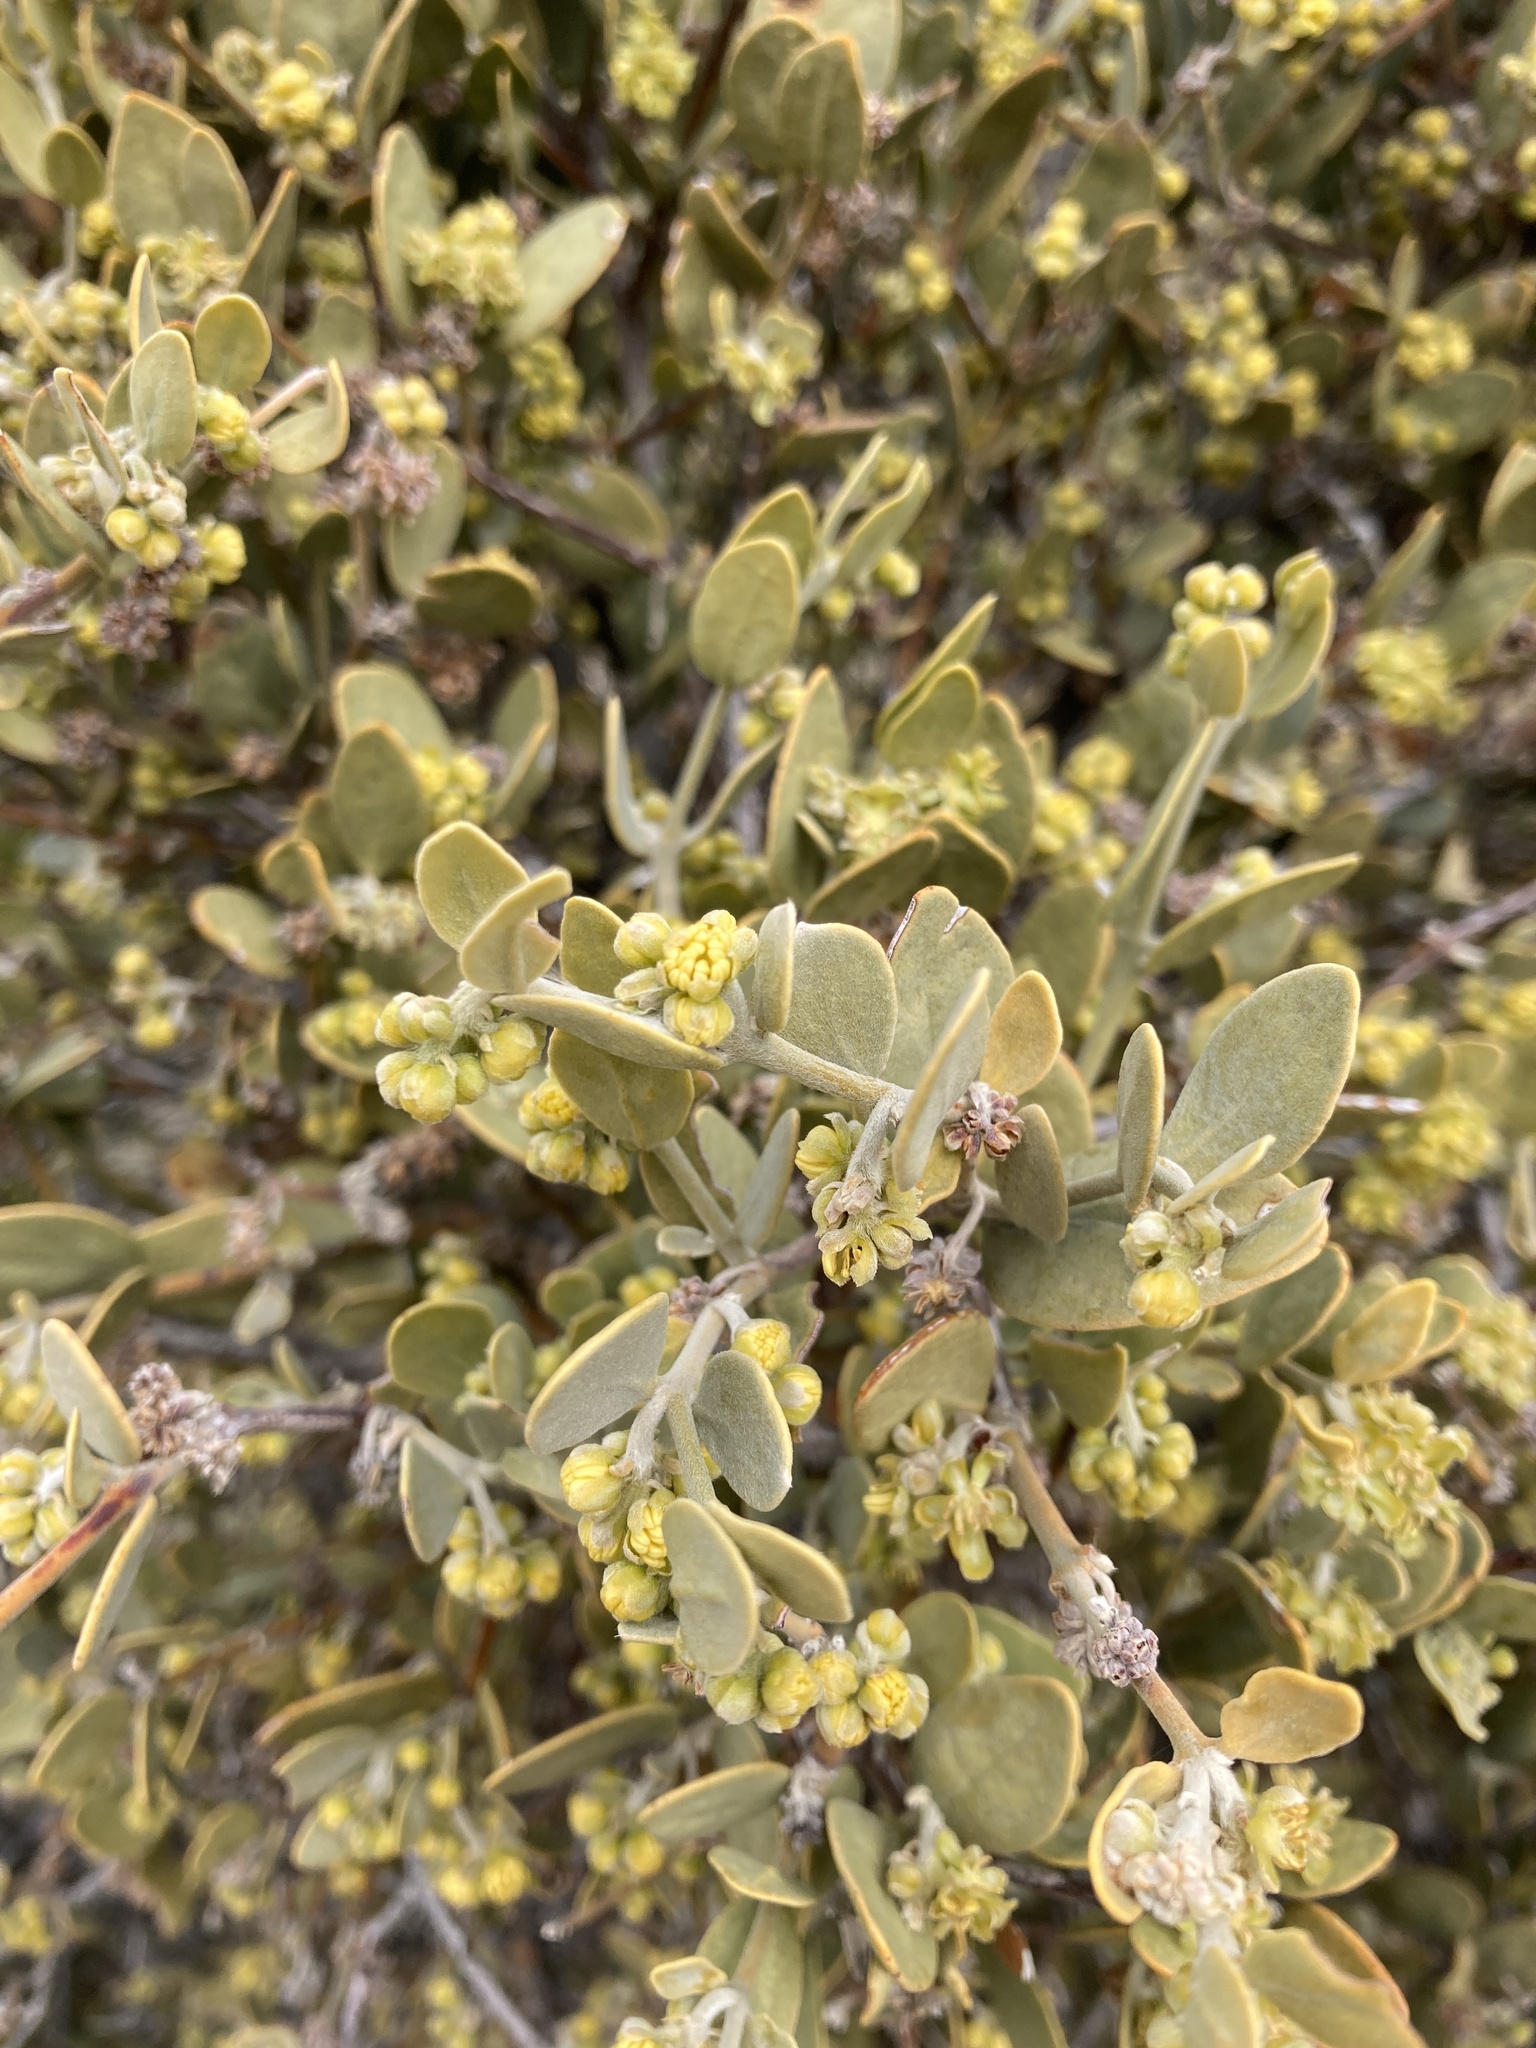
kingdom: Plantae
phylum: Tracheophyta
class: Magnoliopsida
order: Caryophyllales
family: Simmondsiaceae
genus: Simmondsia
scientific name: Simmondsia chinensis
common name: Jojoba
